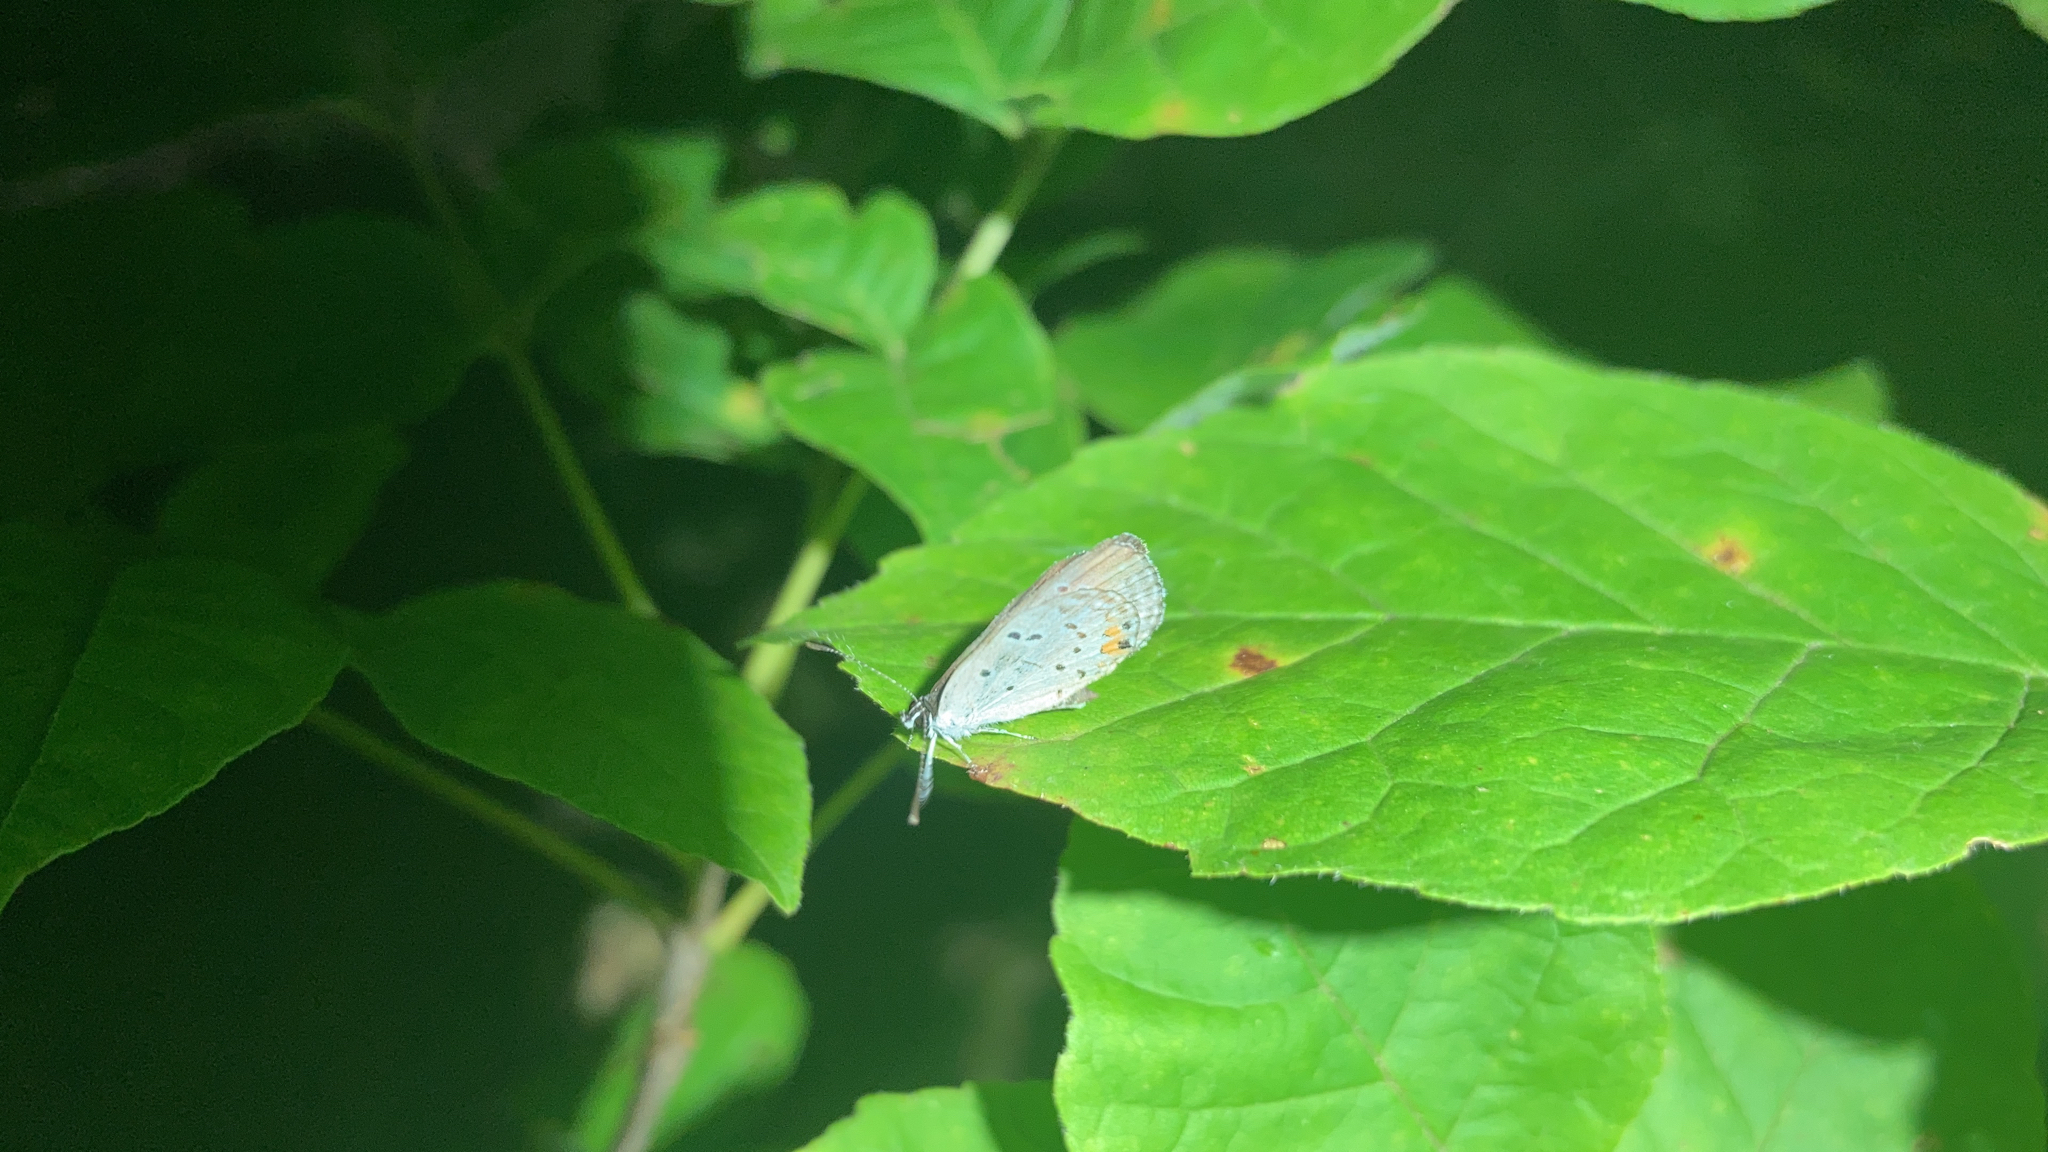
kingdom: Animalia
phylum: Arthropoda
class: Insecta
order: Lepidoptera
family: Lycaenidae
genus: Elkalyce
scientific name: Elkalyce comyntas
